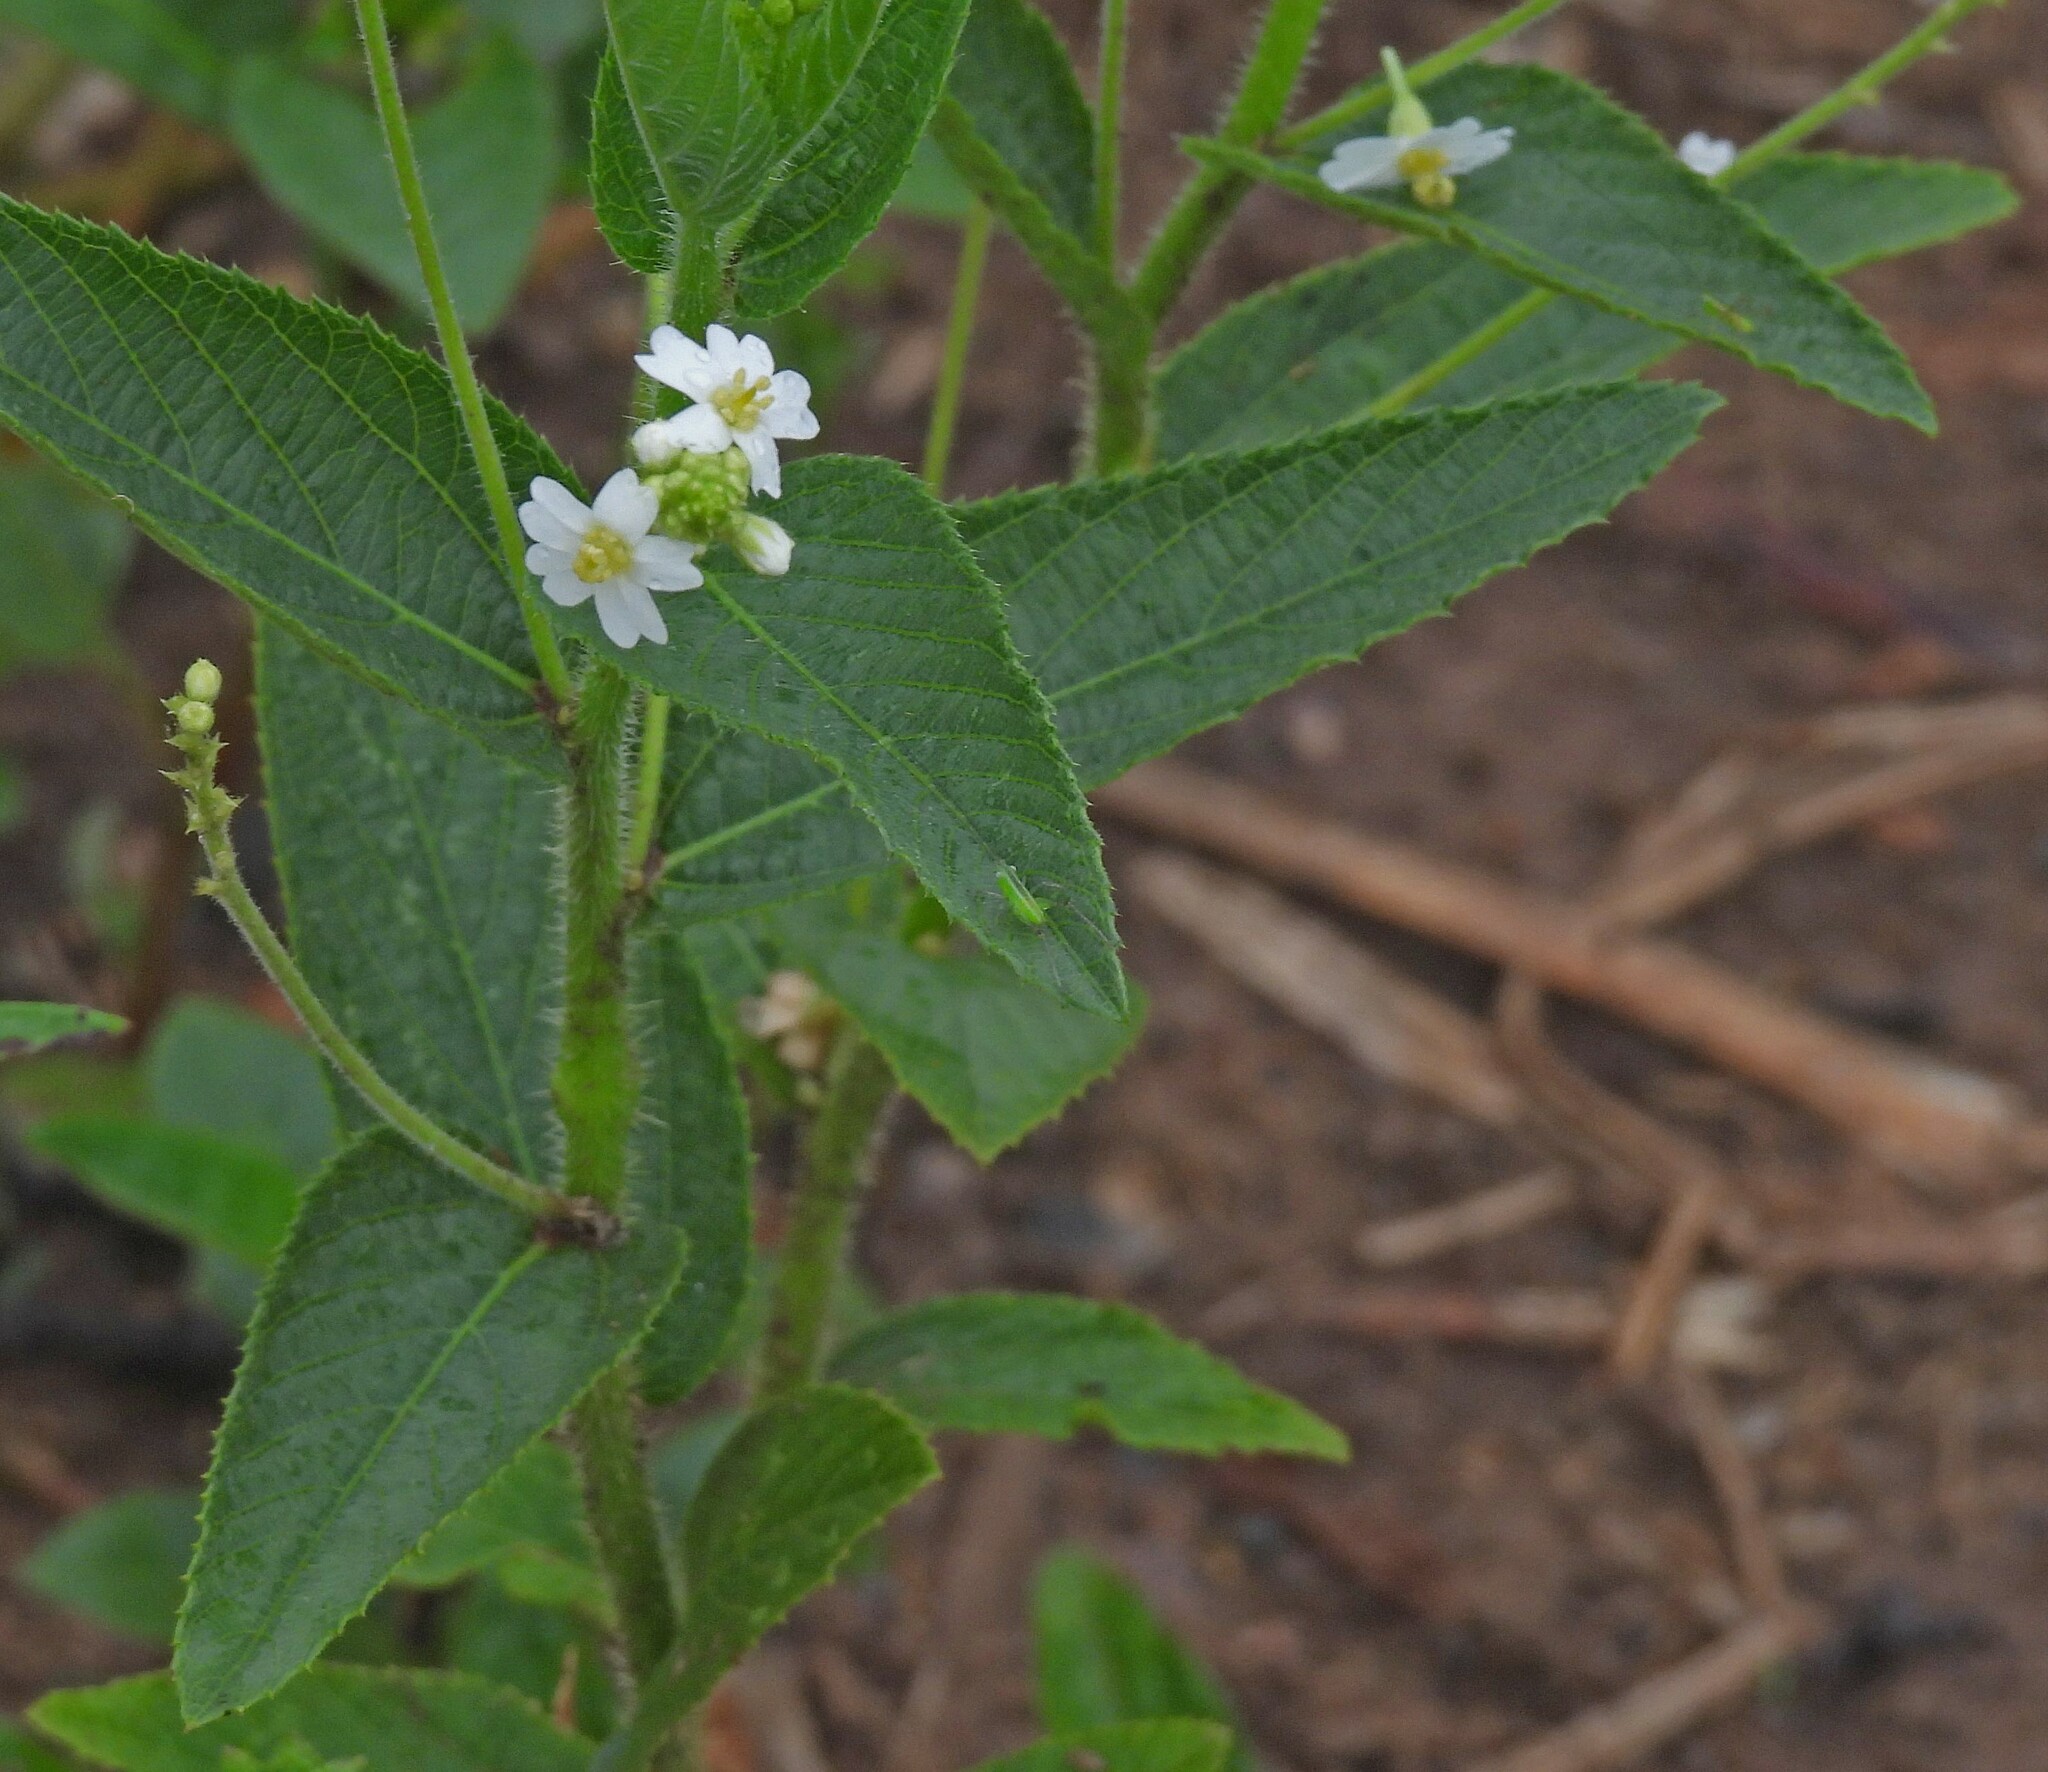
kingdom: Plantae
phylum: Tracheophyta
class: Magnoliopsida
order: Malpighiales
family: Euphorbiaceae
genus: Caperonia
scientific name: Caperonia cordata
